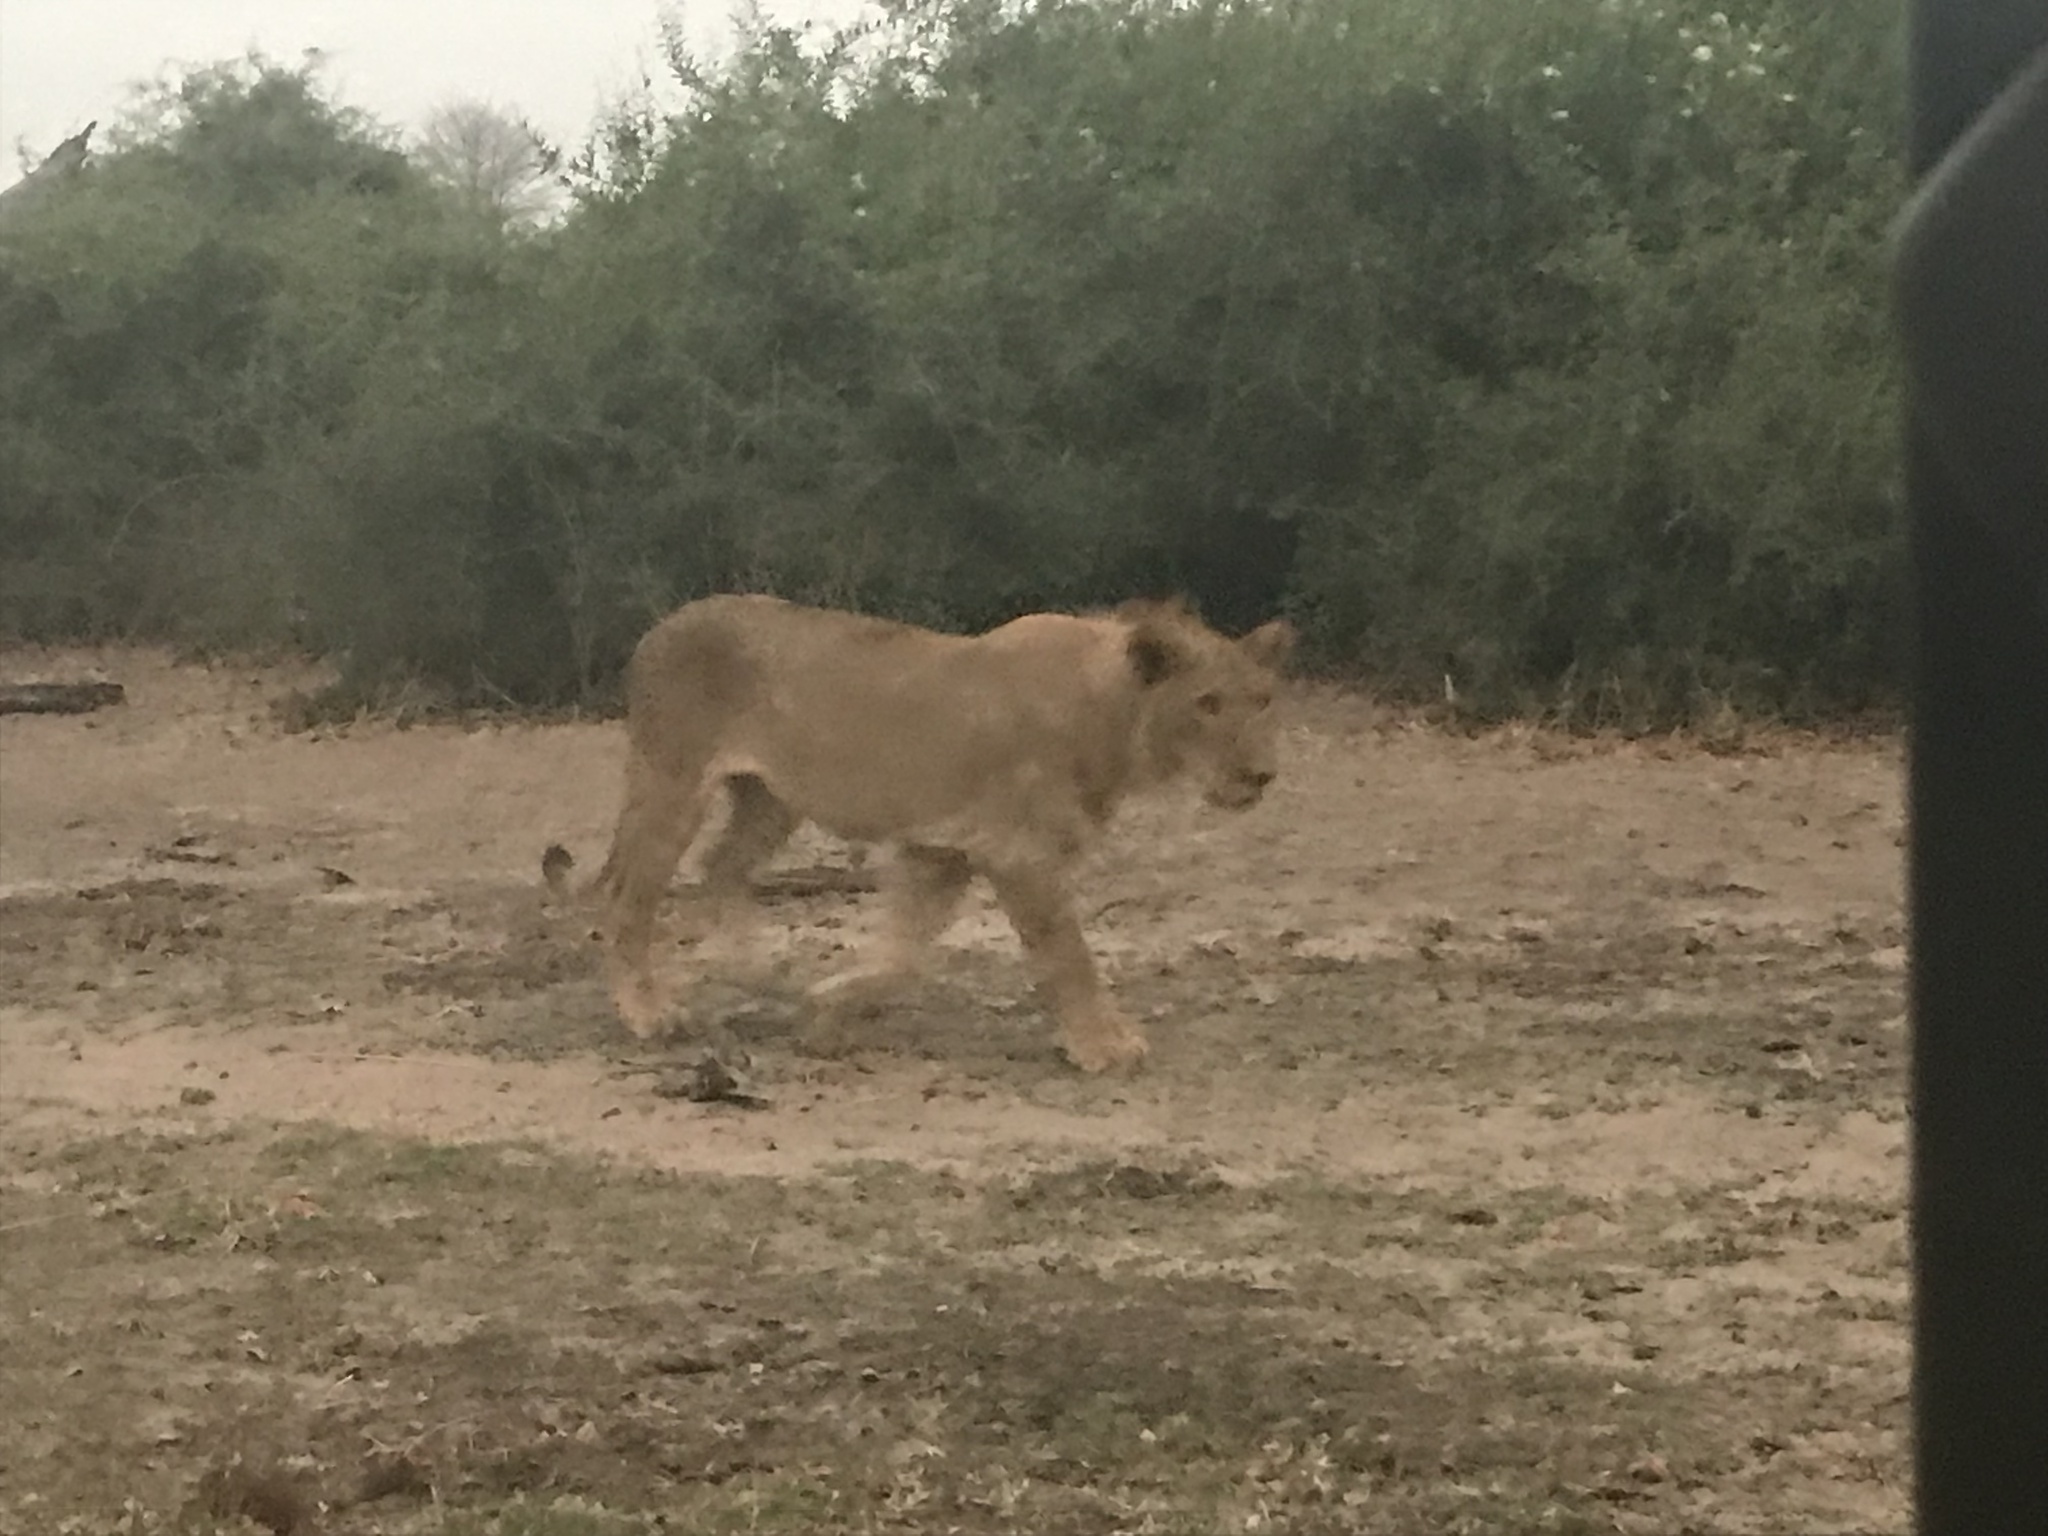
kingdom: Animalia
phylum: Chordata
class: Mammalia
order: Carnivora
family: Felidae
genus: Panthera
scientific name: Panthera leo
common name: Lion
